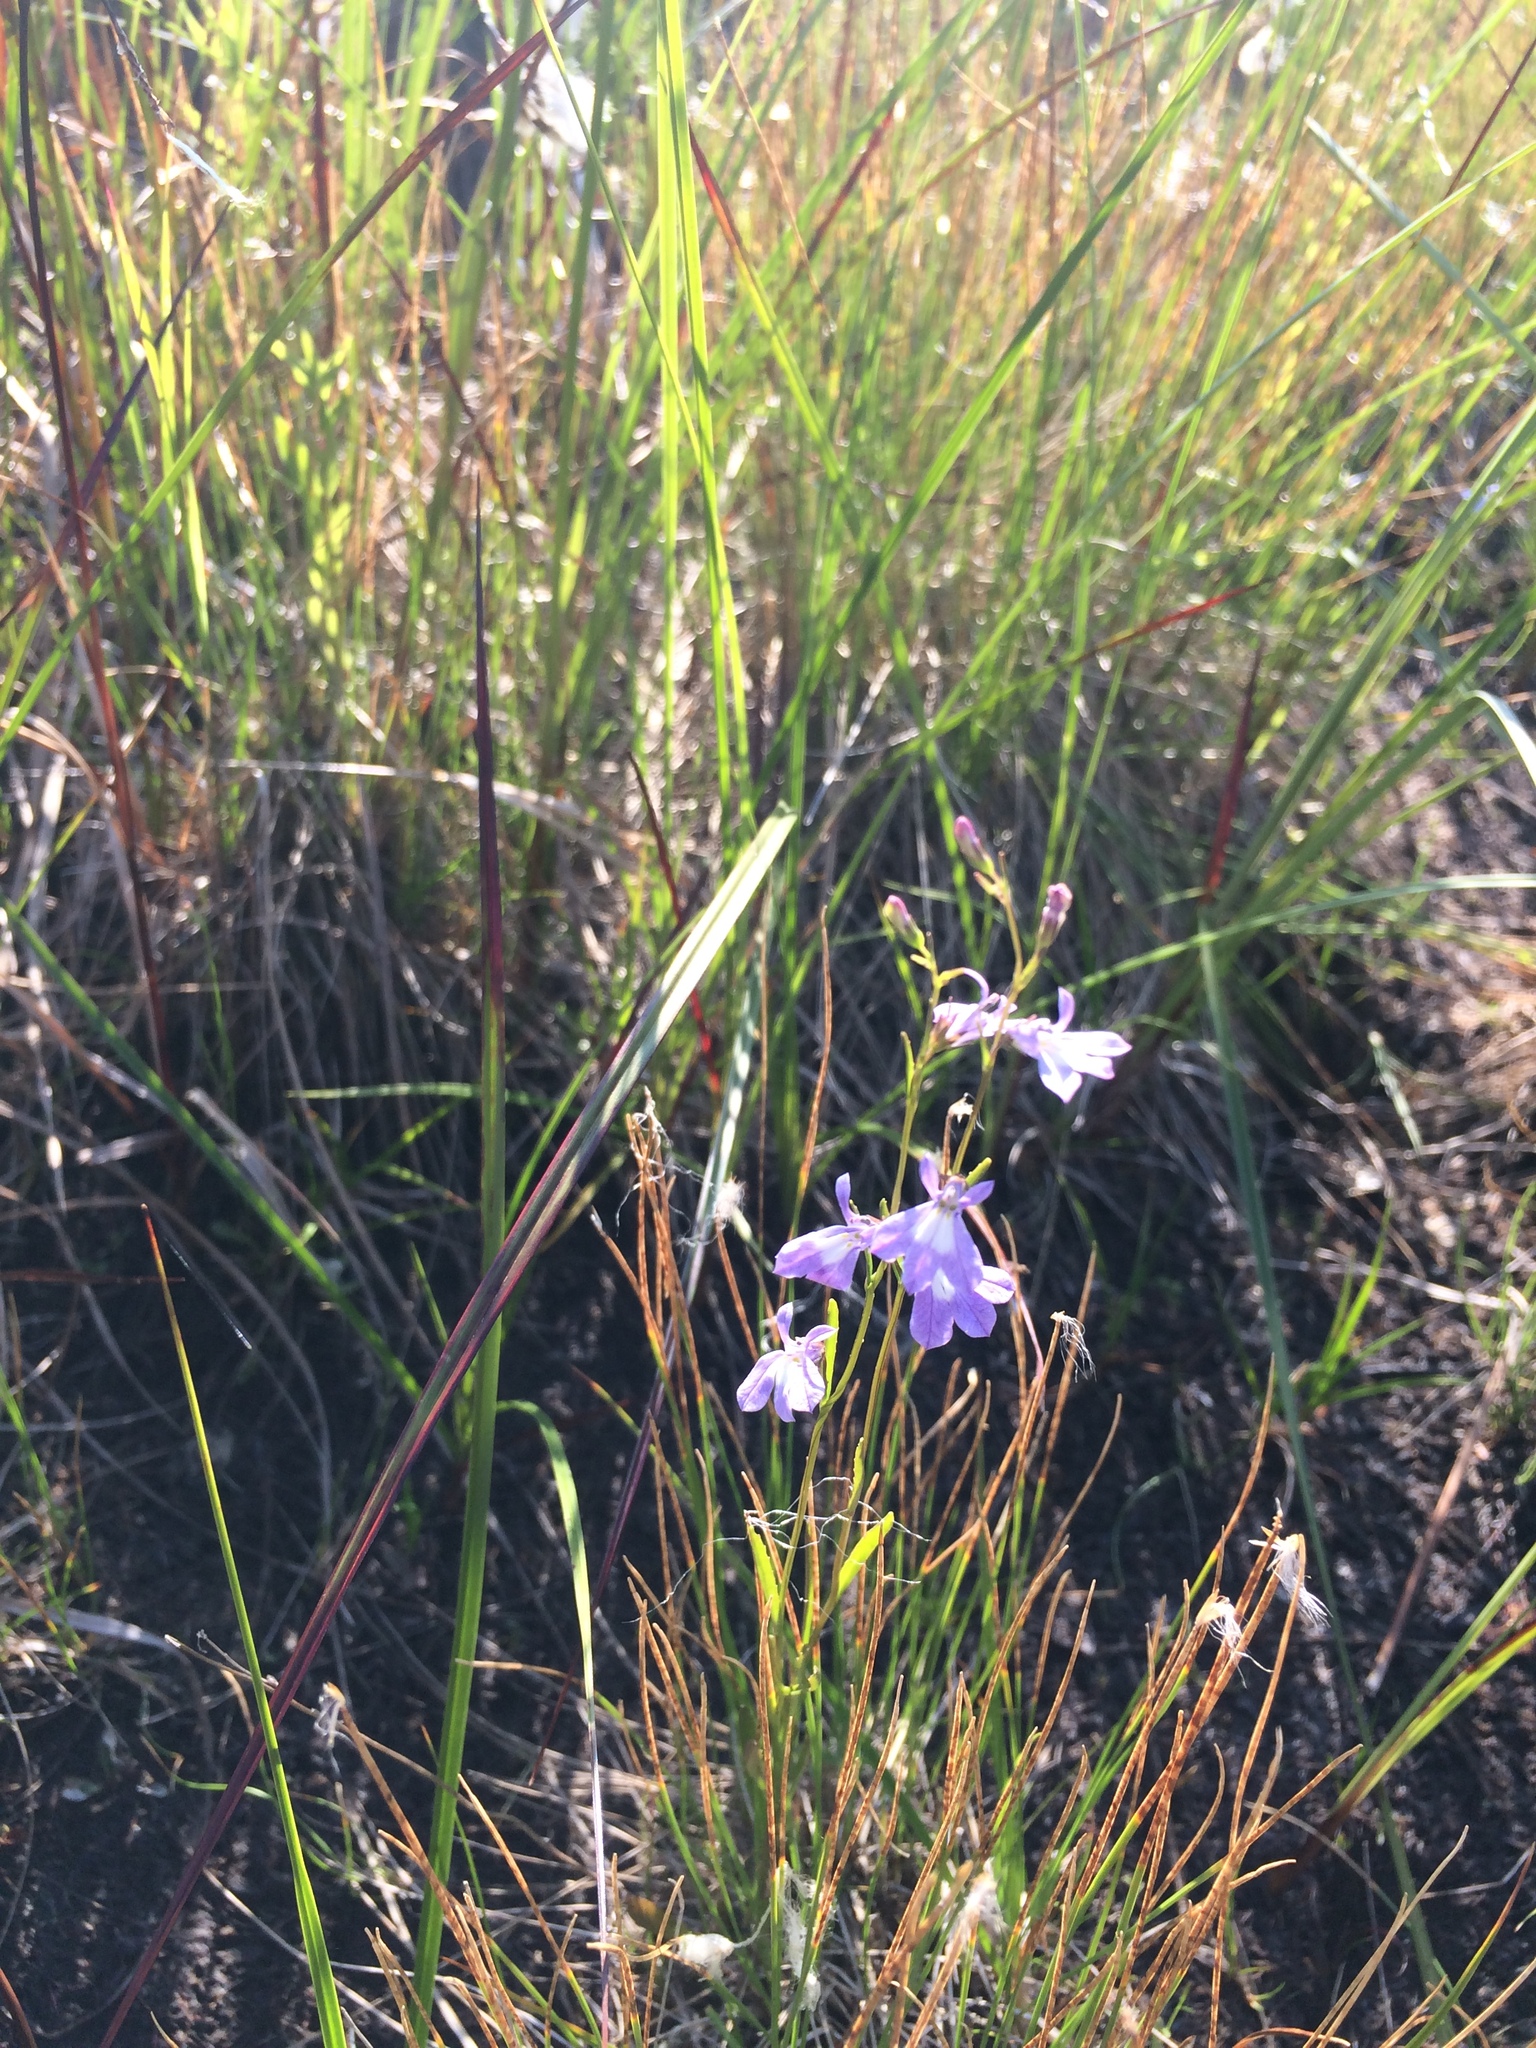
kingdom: Plantae
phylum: Tracheophyta
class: Magnoliopsida
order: Asterales
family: Campanulaceae
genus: Lobelia
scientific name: Lobelia kalmii
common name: Kalm's lobelia
